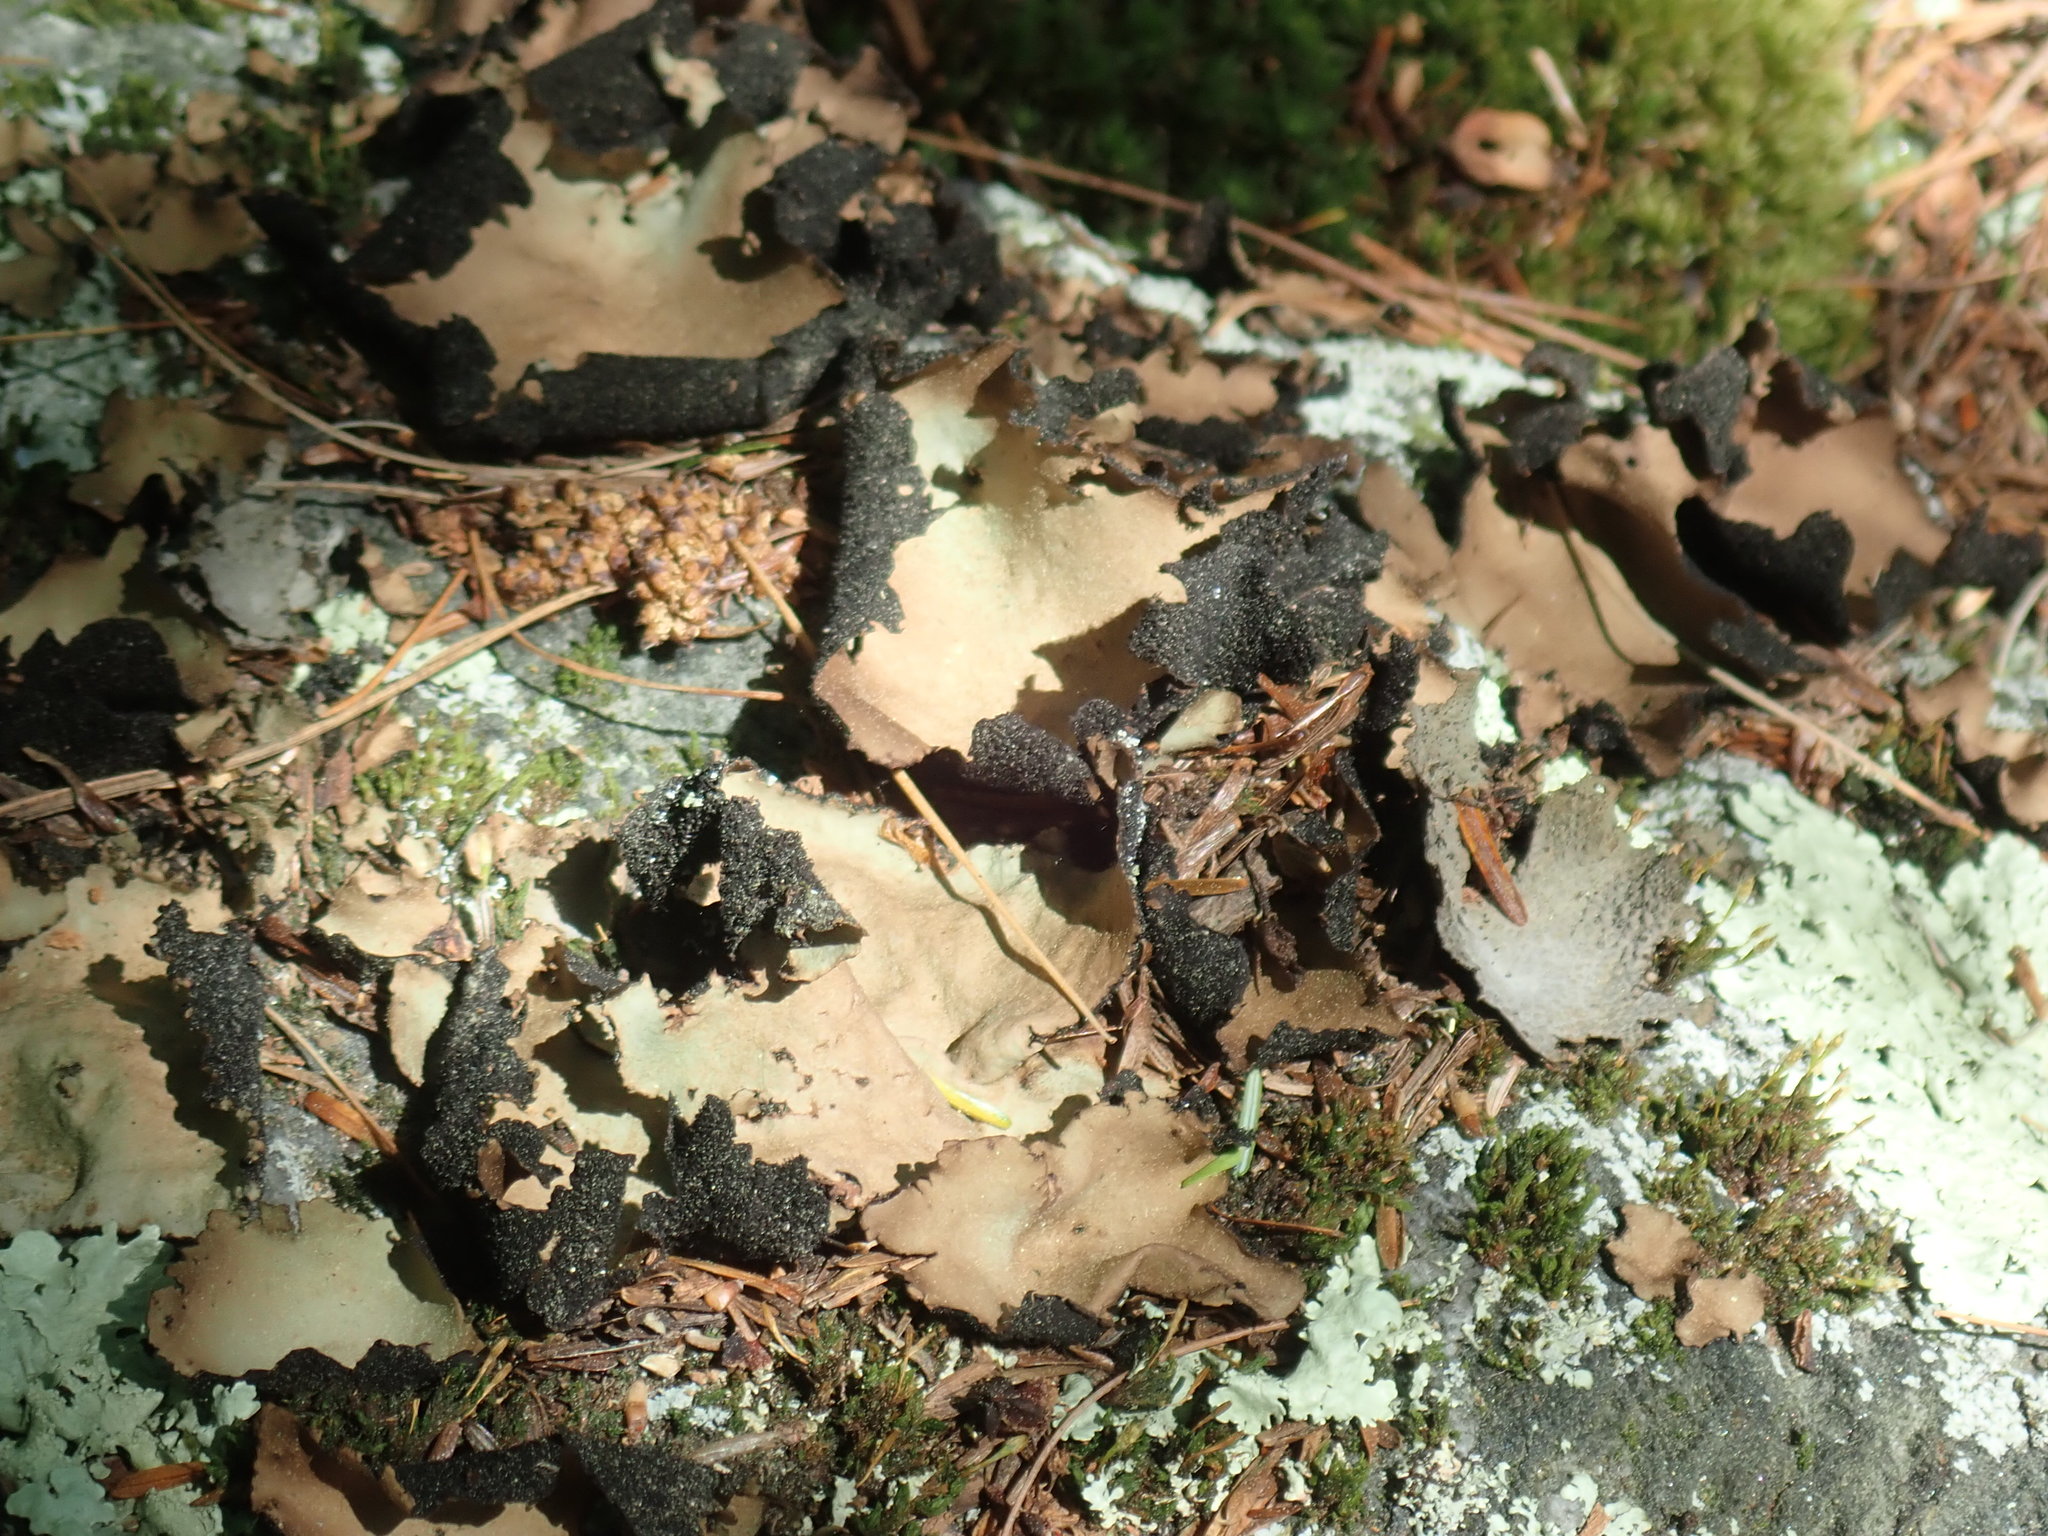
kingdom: Fungi
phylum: Ascomycota
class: Lecanoromycetes
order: Umbilicariales
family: Umbilicariaceae
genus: Umbilicaria
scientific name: Umbilicaria mammulata
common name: Smooth rock tripe
